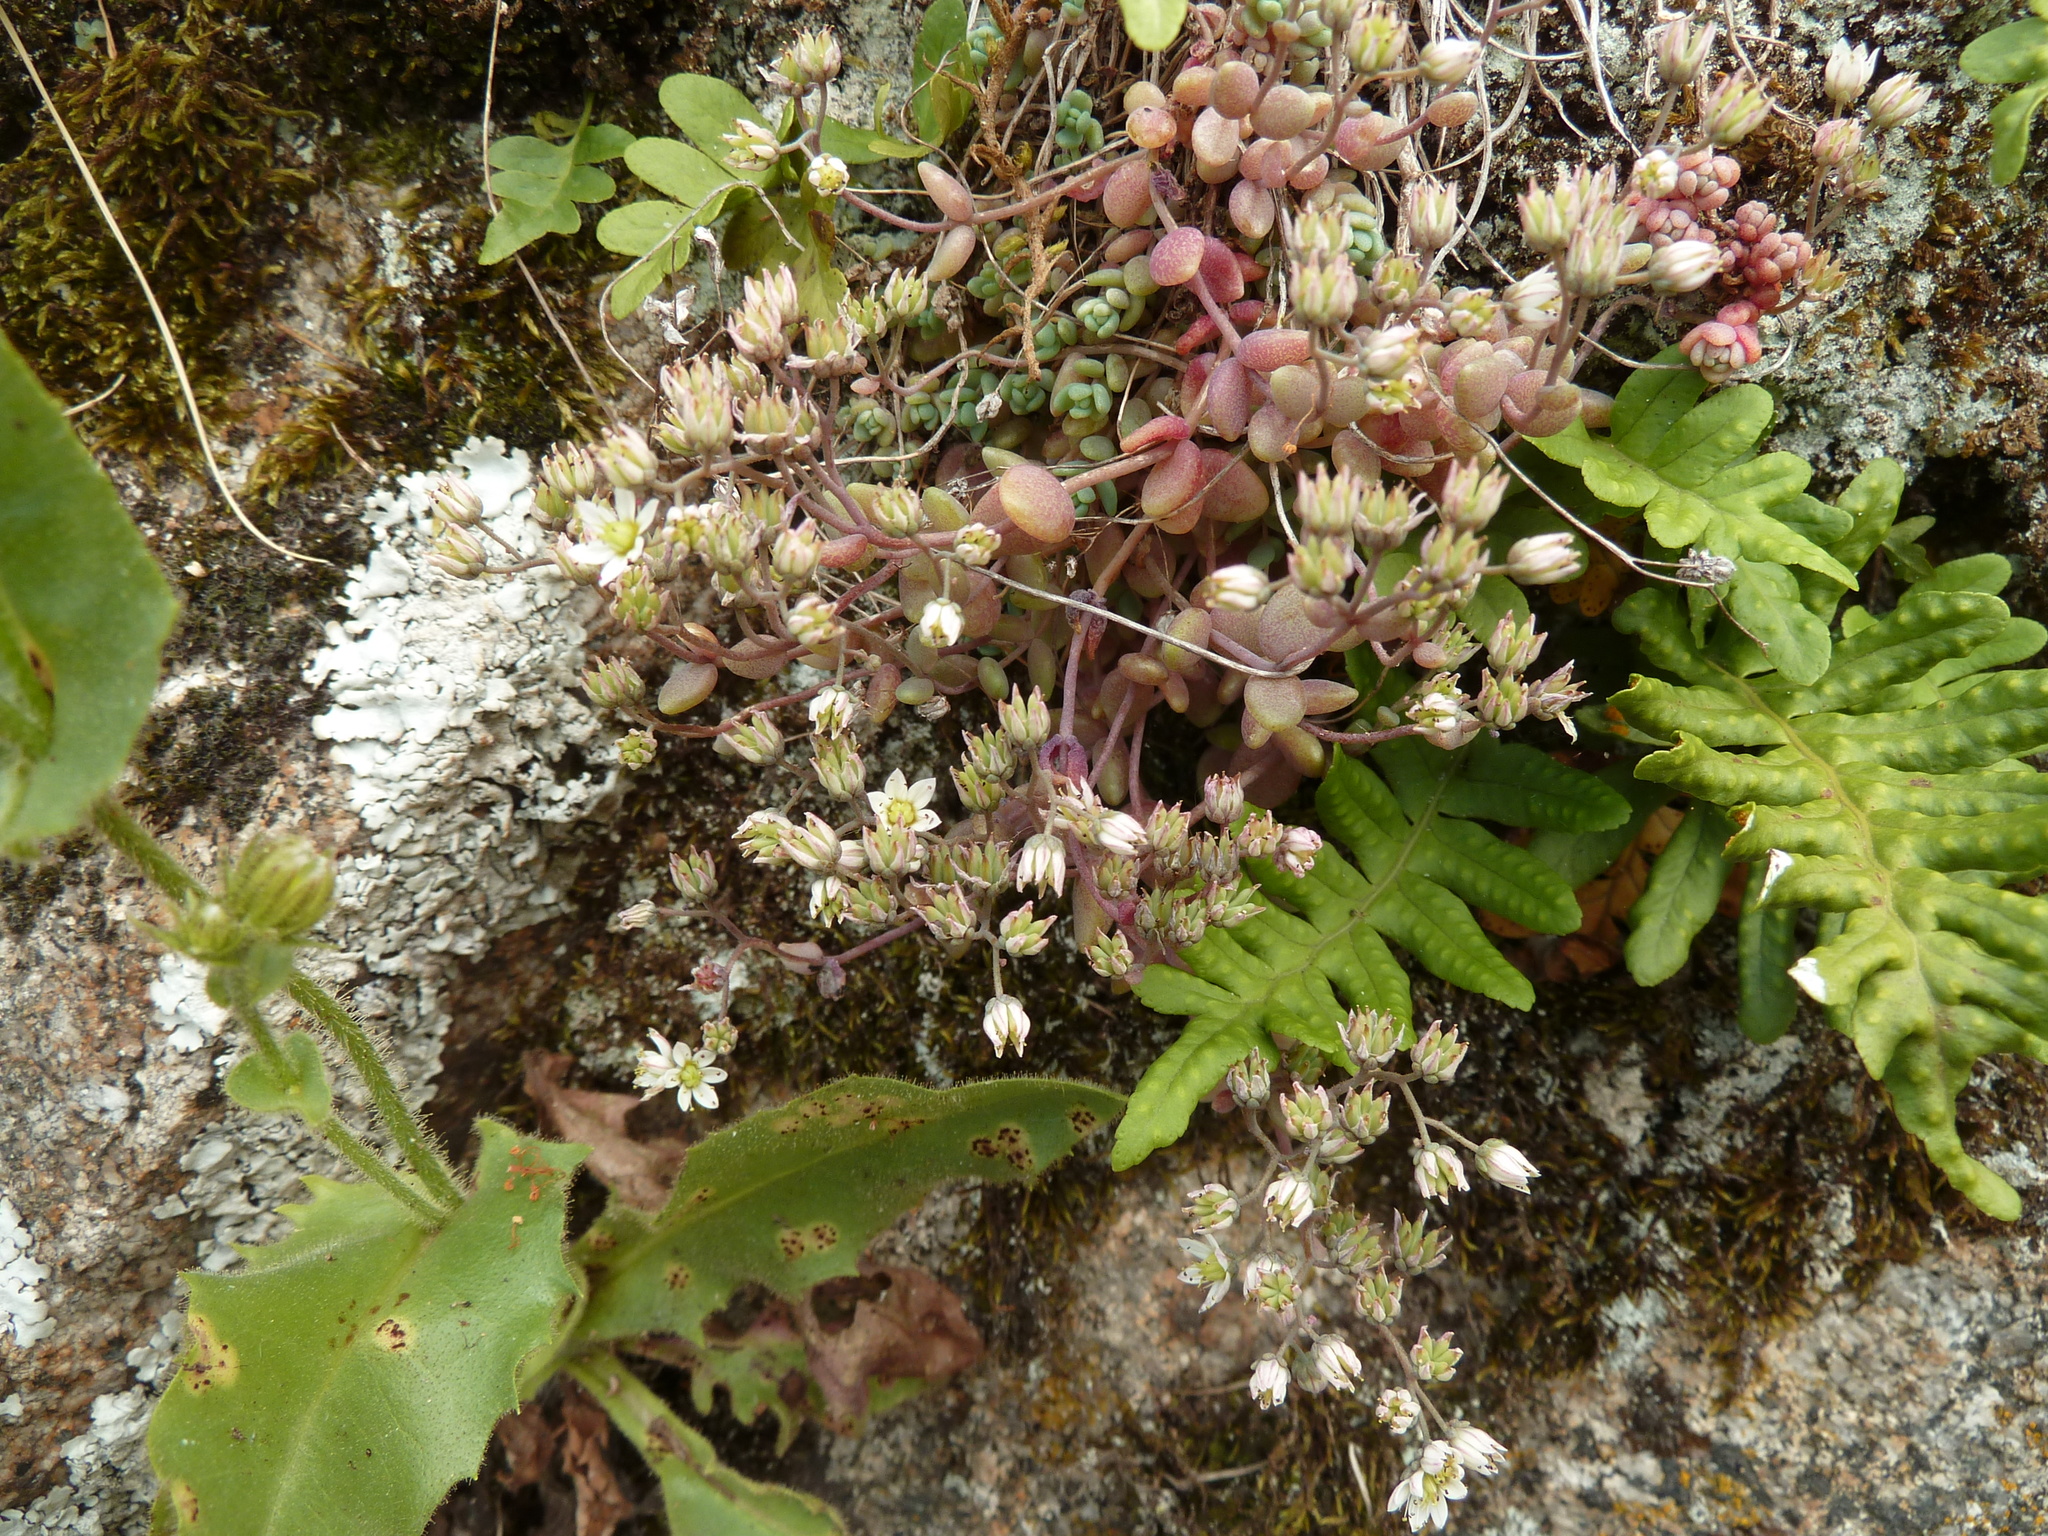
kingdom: Plantae
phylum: Tracheophyta
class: Magnoliopsida
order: Saxifragales
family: Crassulaceae
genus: Sedum
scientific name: Sedum dasyphyllum
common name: Thick-leaf stonecrop
